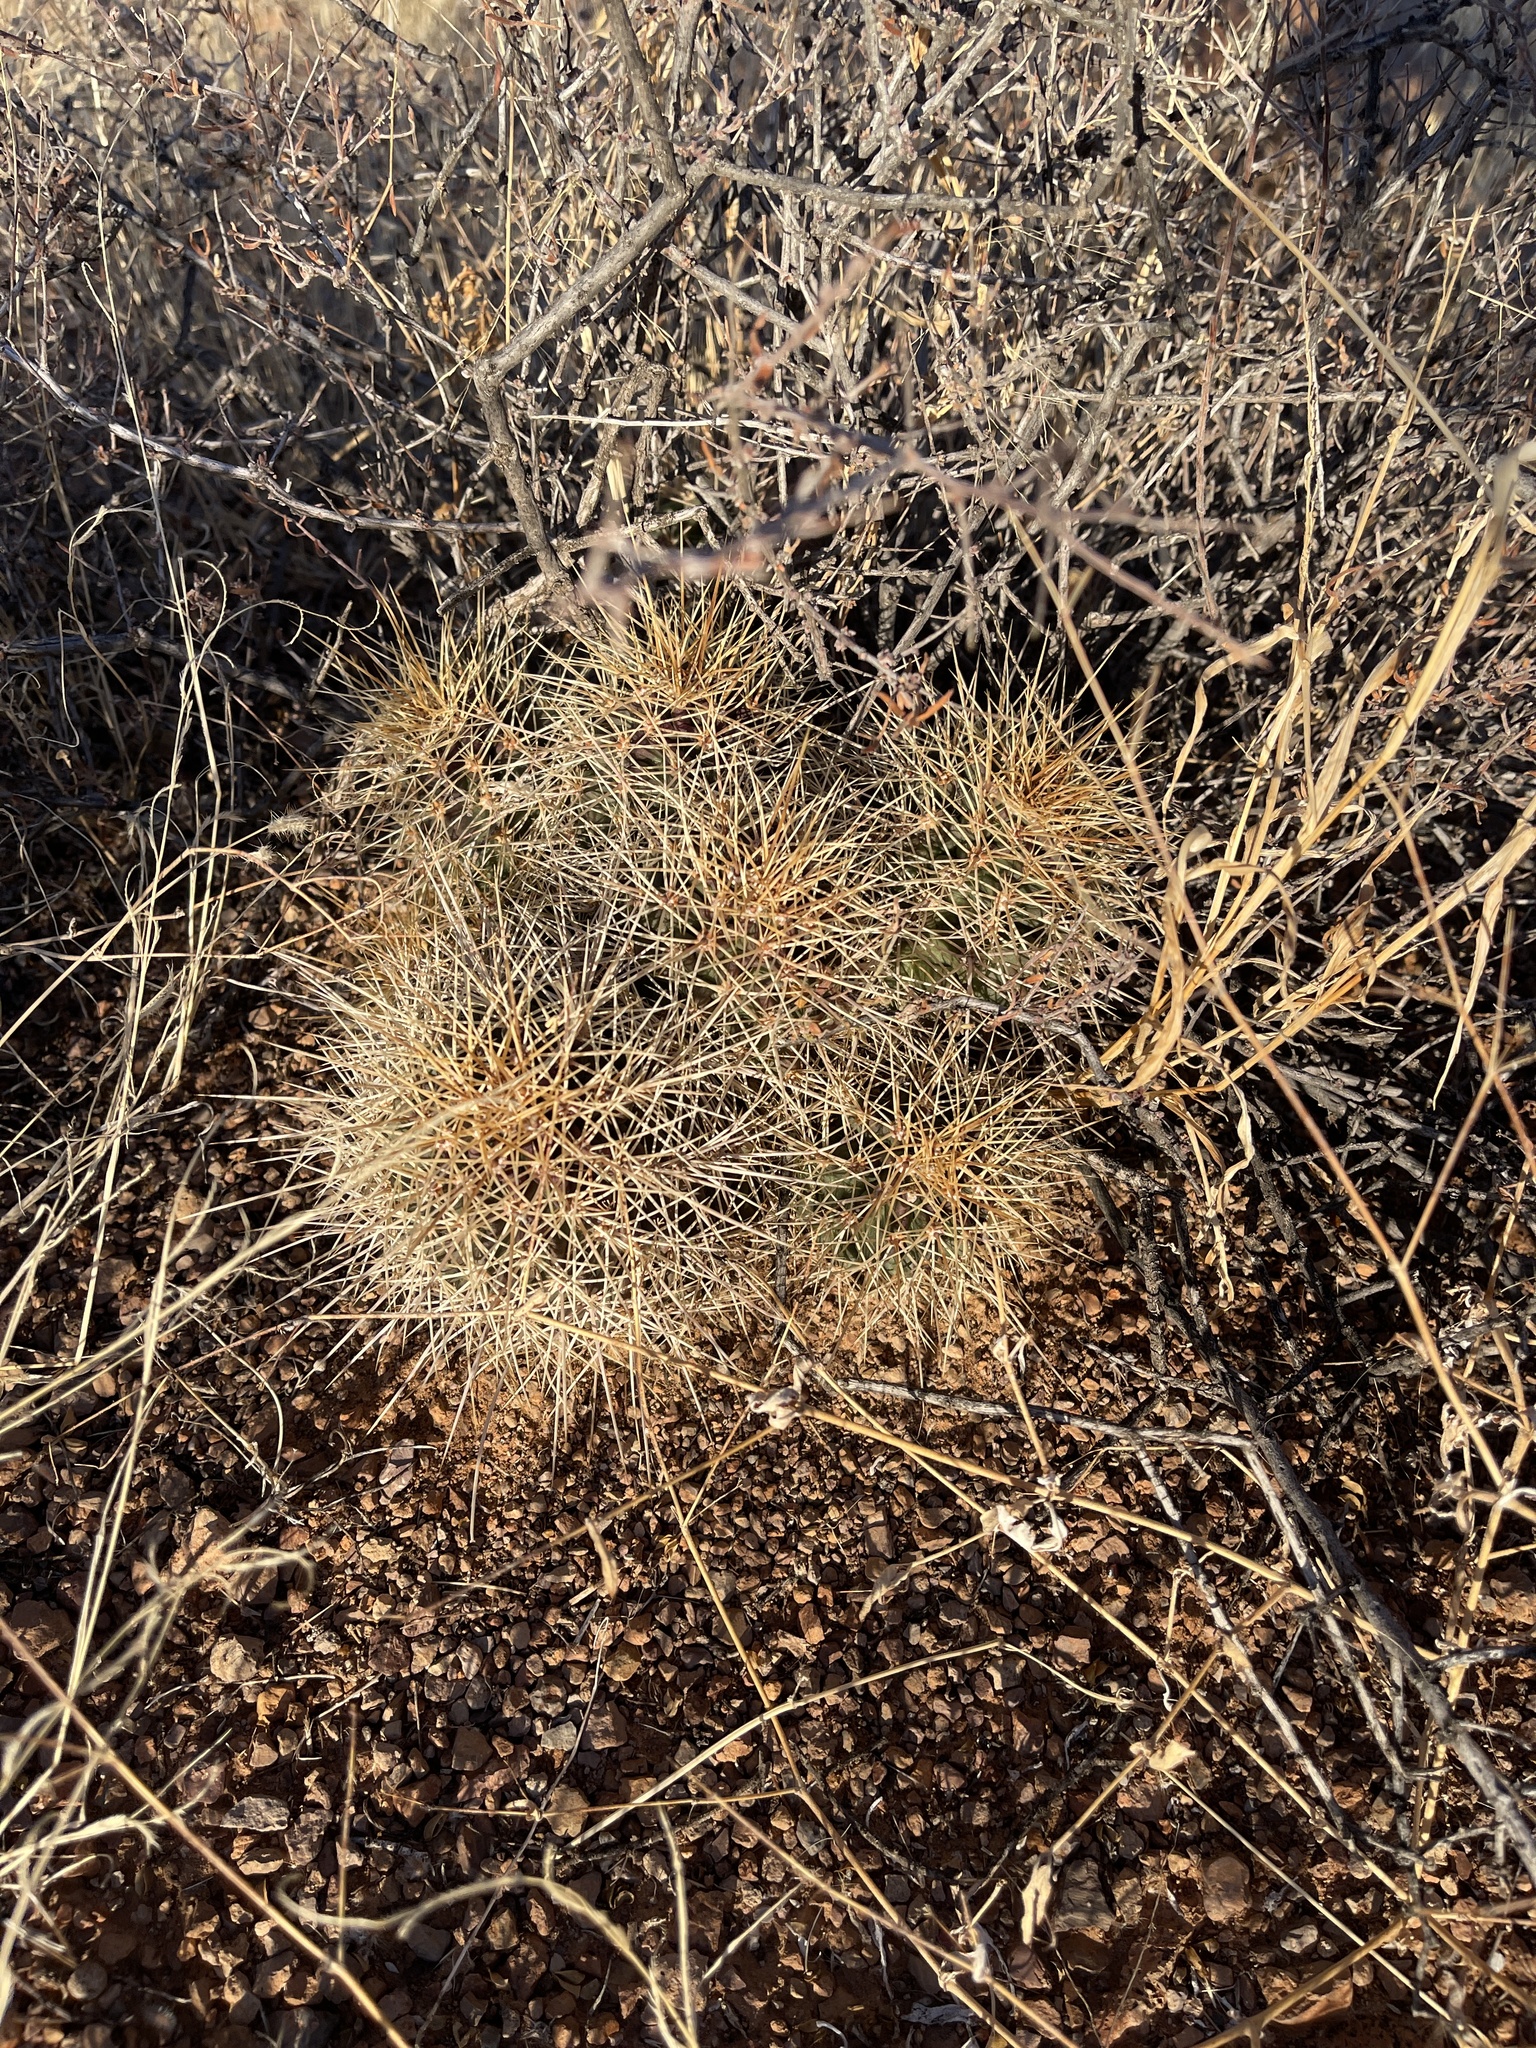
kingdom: Plantae
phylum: Tracheophyta
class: Magnoliopsida
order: Caryophyllales
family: Cactaceae
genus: Echinocereus
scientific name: Echinocereus coccineus
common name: Scarlet hedgehog cactus
